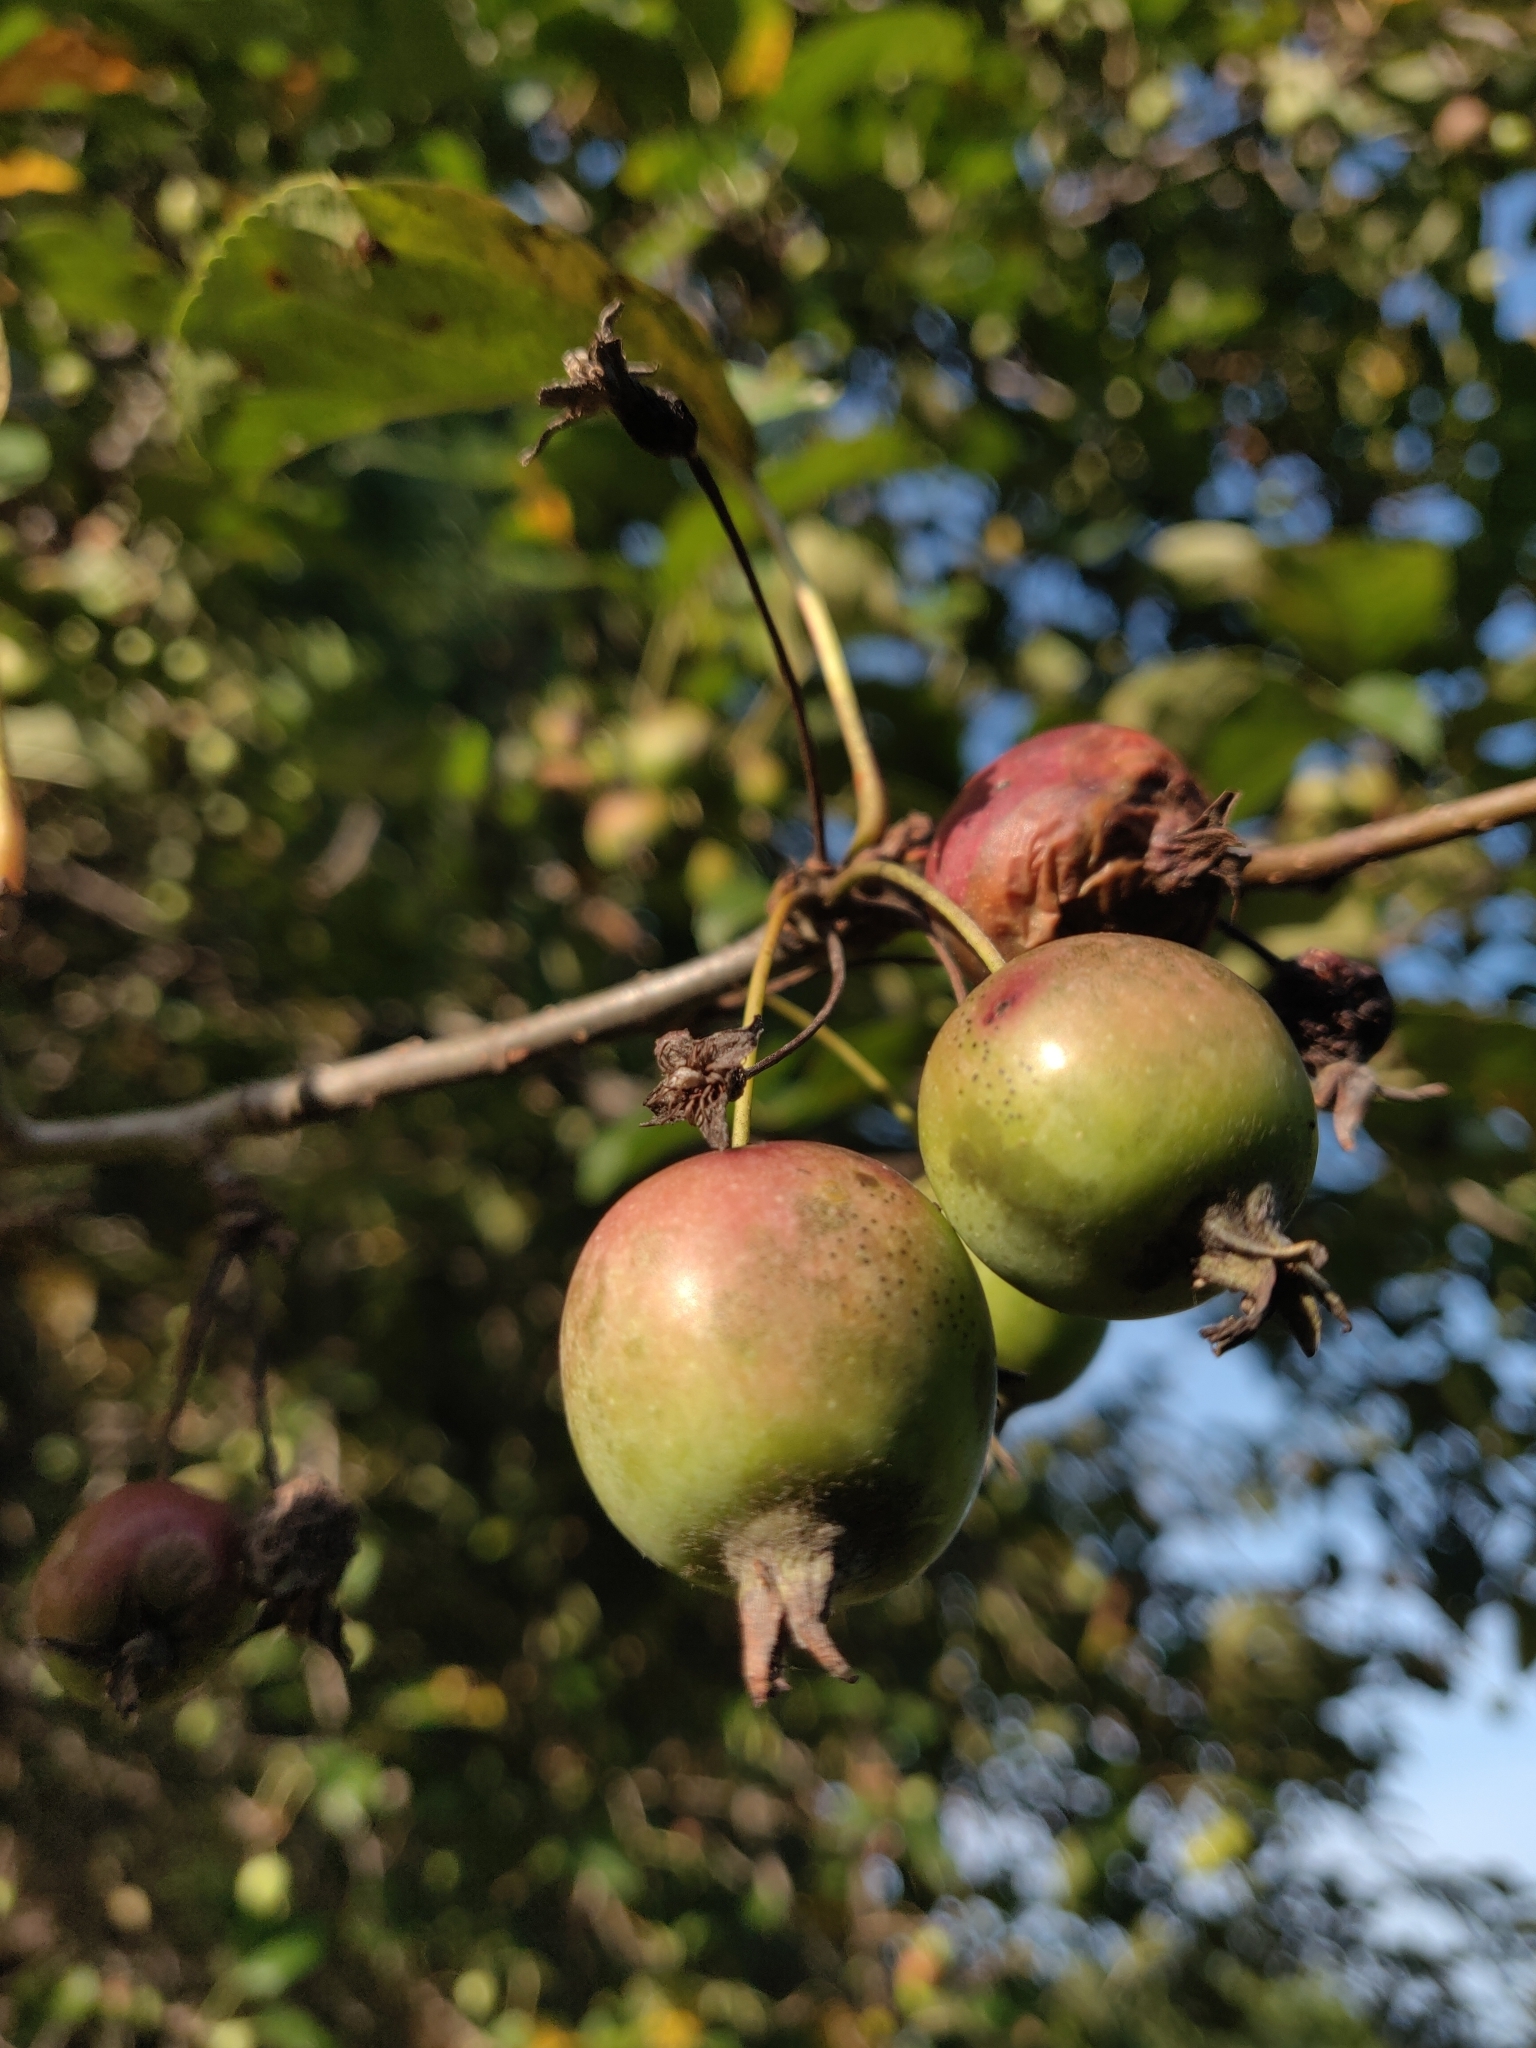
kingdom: Plantae
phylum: Tracheophyta
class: Magnoliopsida
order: Rosales
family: Rosaceae
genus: Malus
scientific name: Malus
